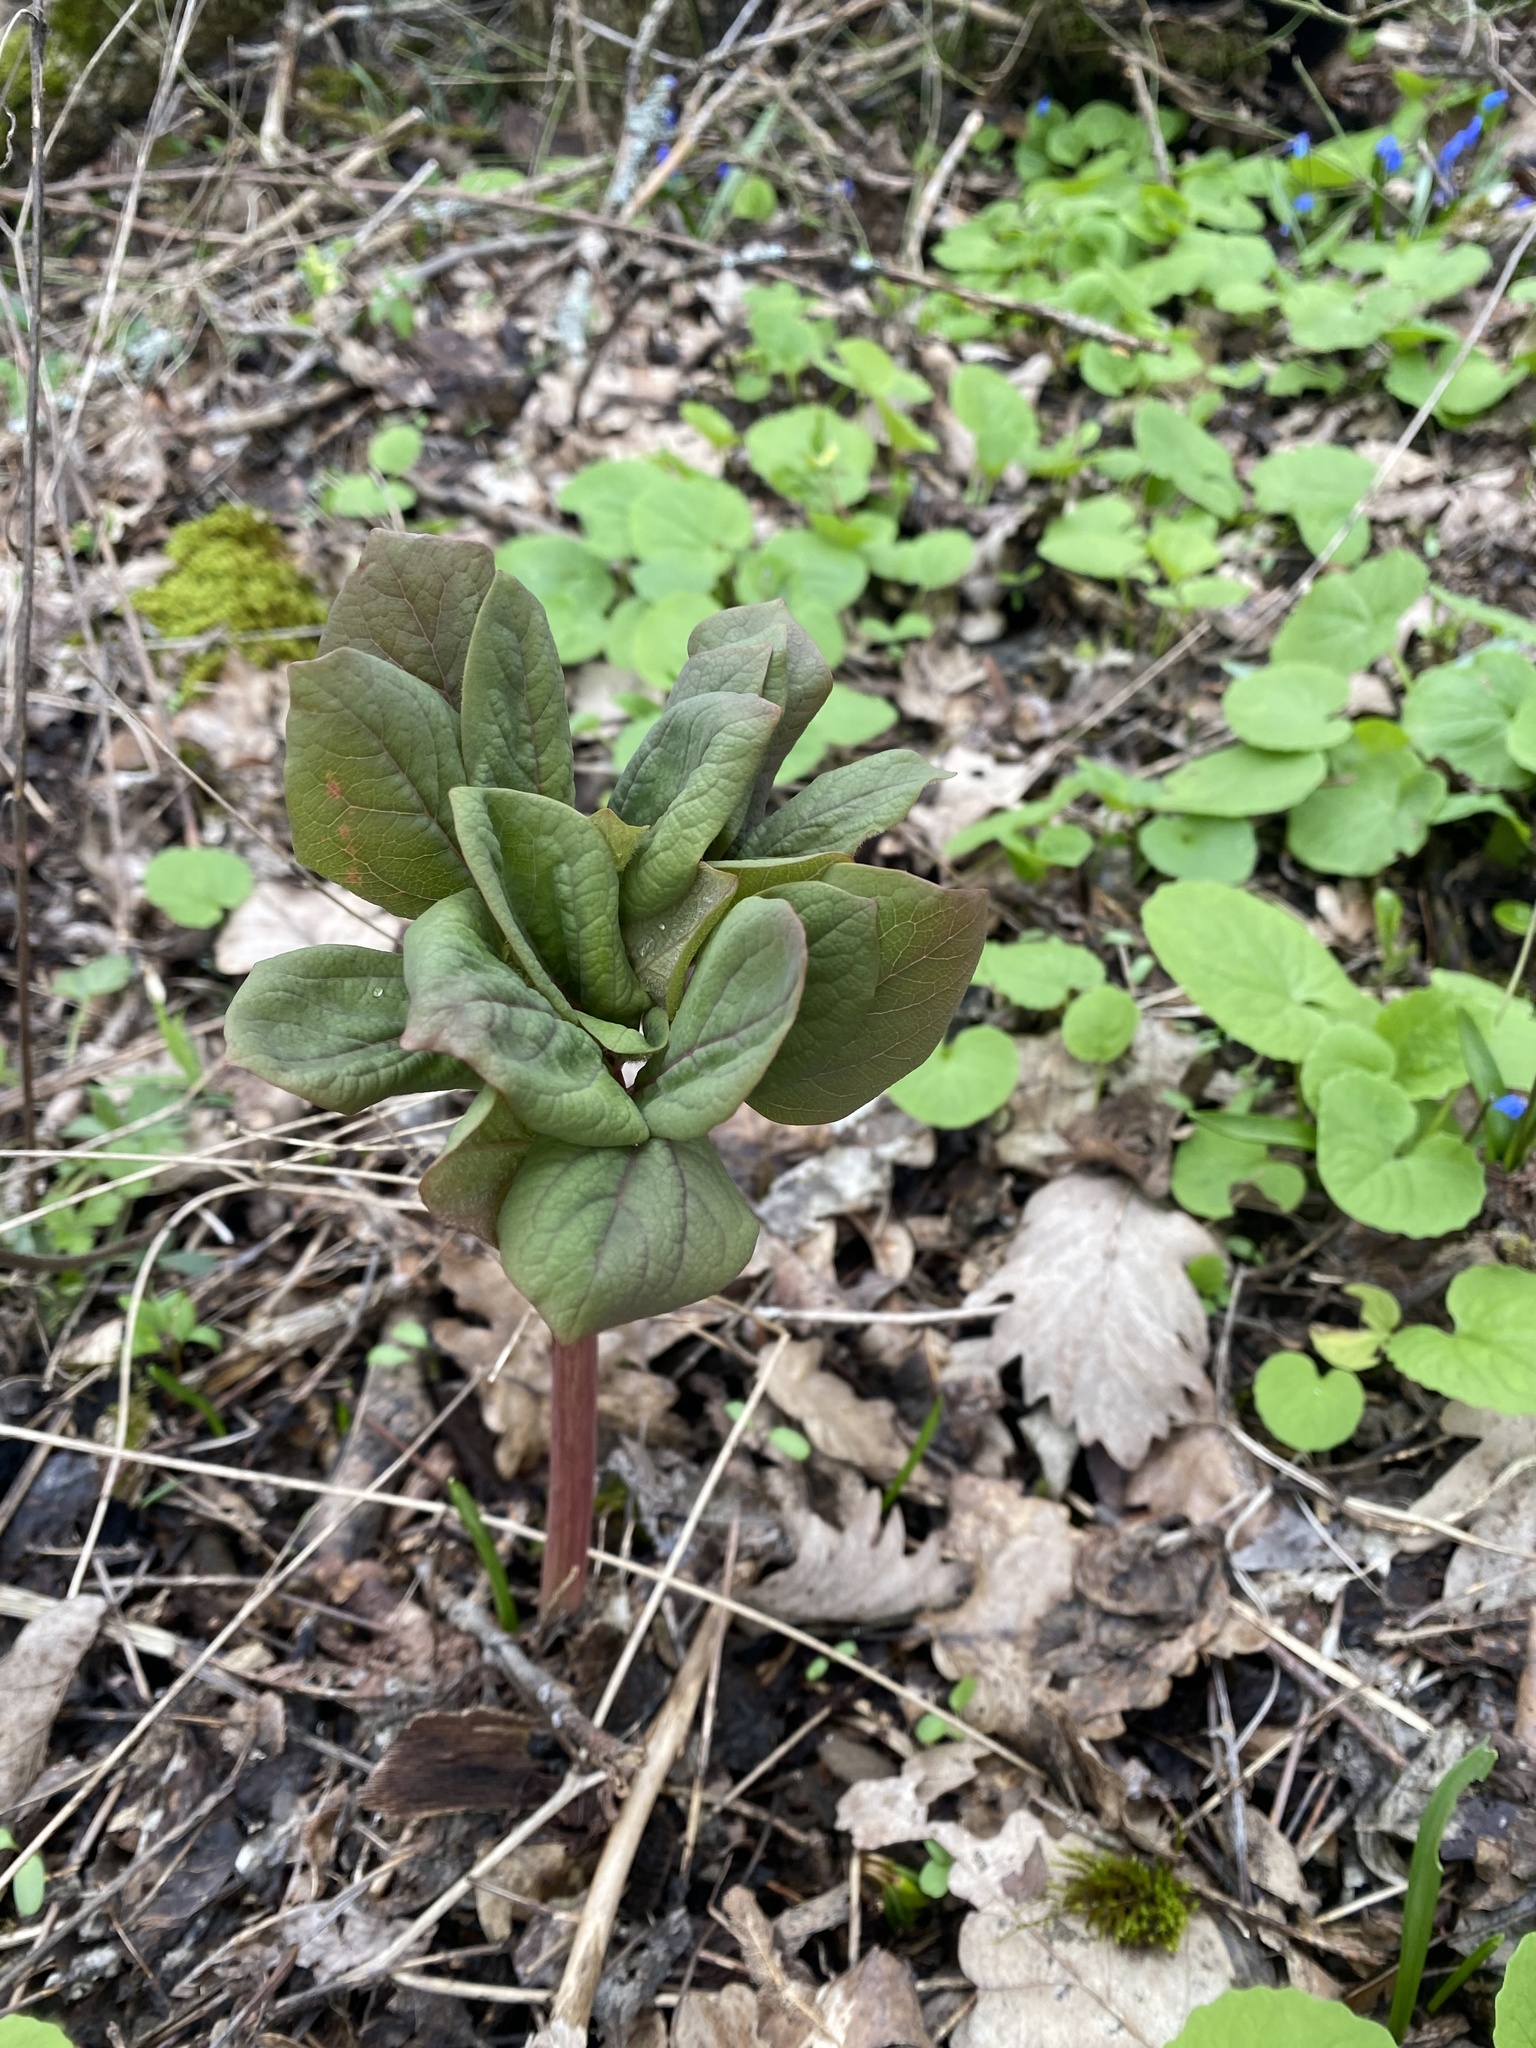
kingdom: Plantae
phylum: Tracheophyta
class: Magnoliopsida
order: Saxifragales
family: Paeoniaceae
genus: Paeonia
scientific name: Paeonia caucasica
